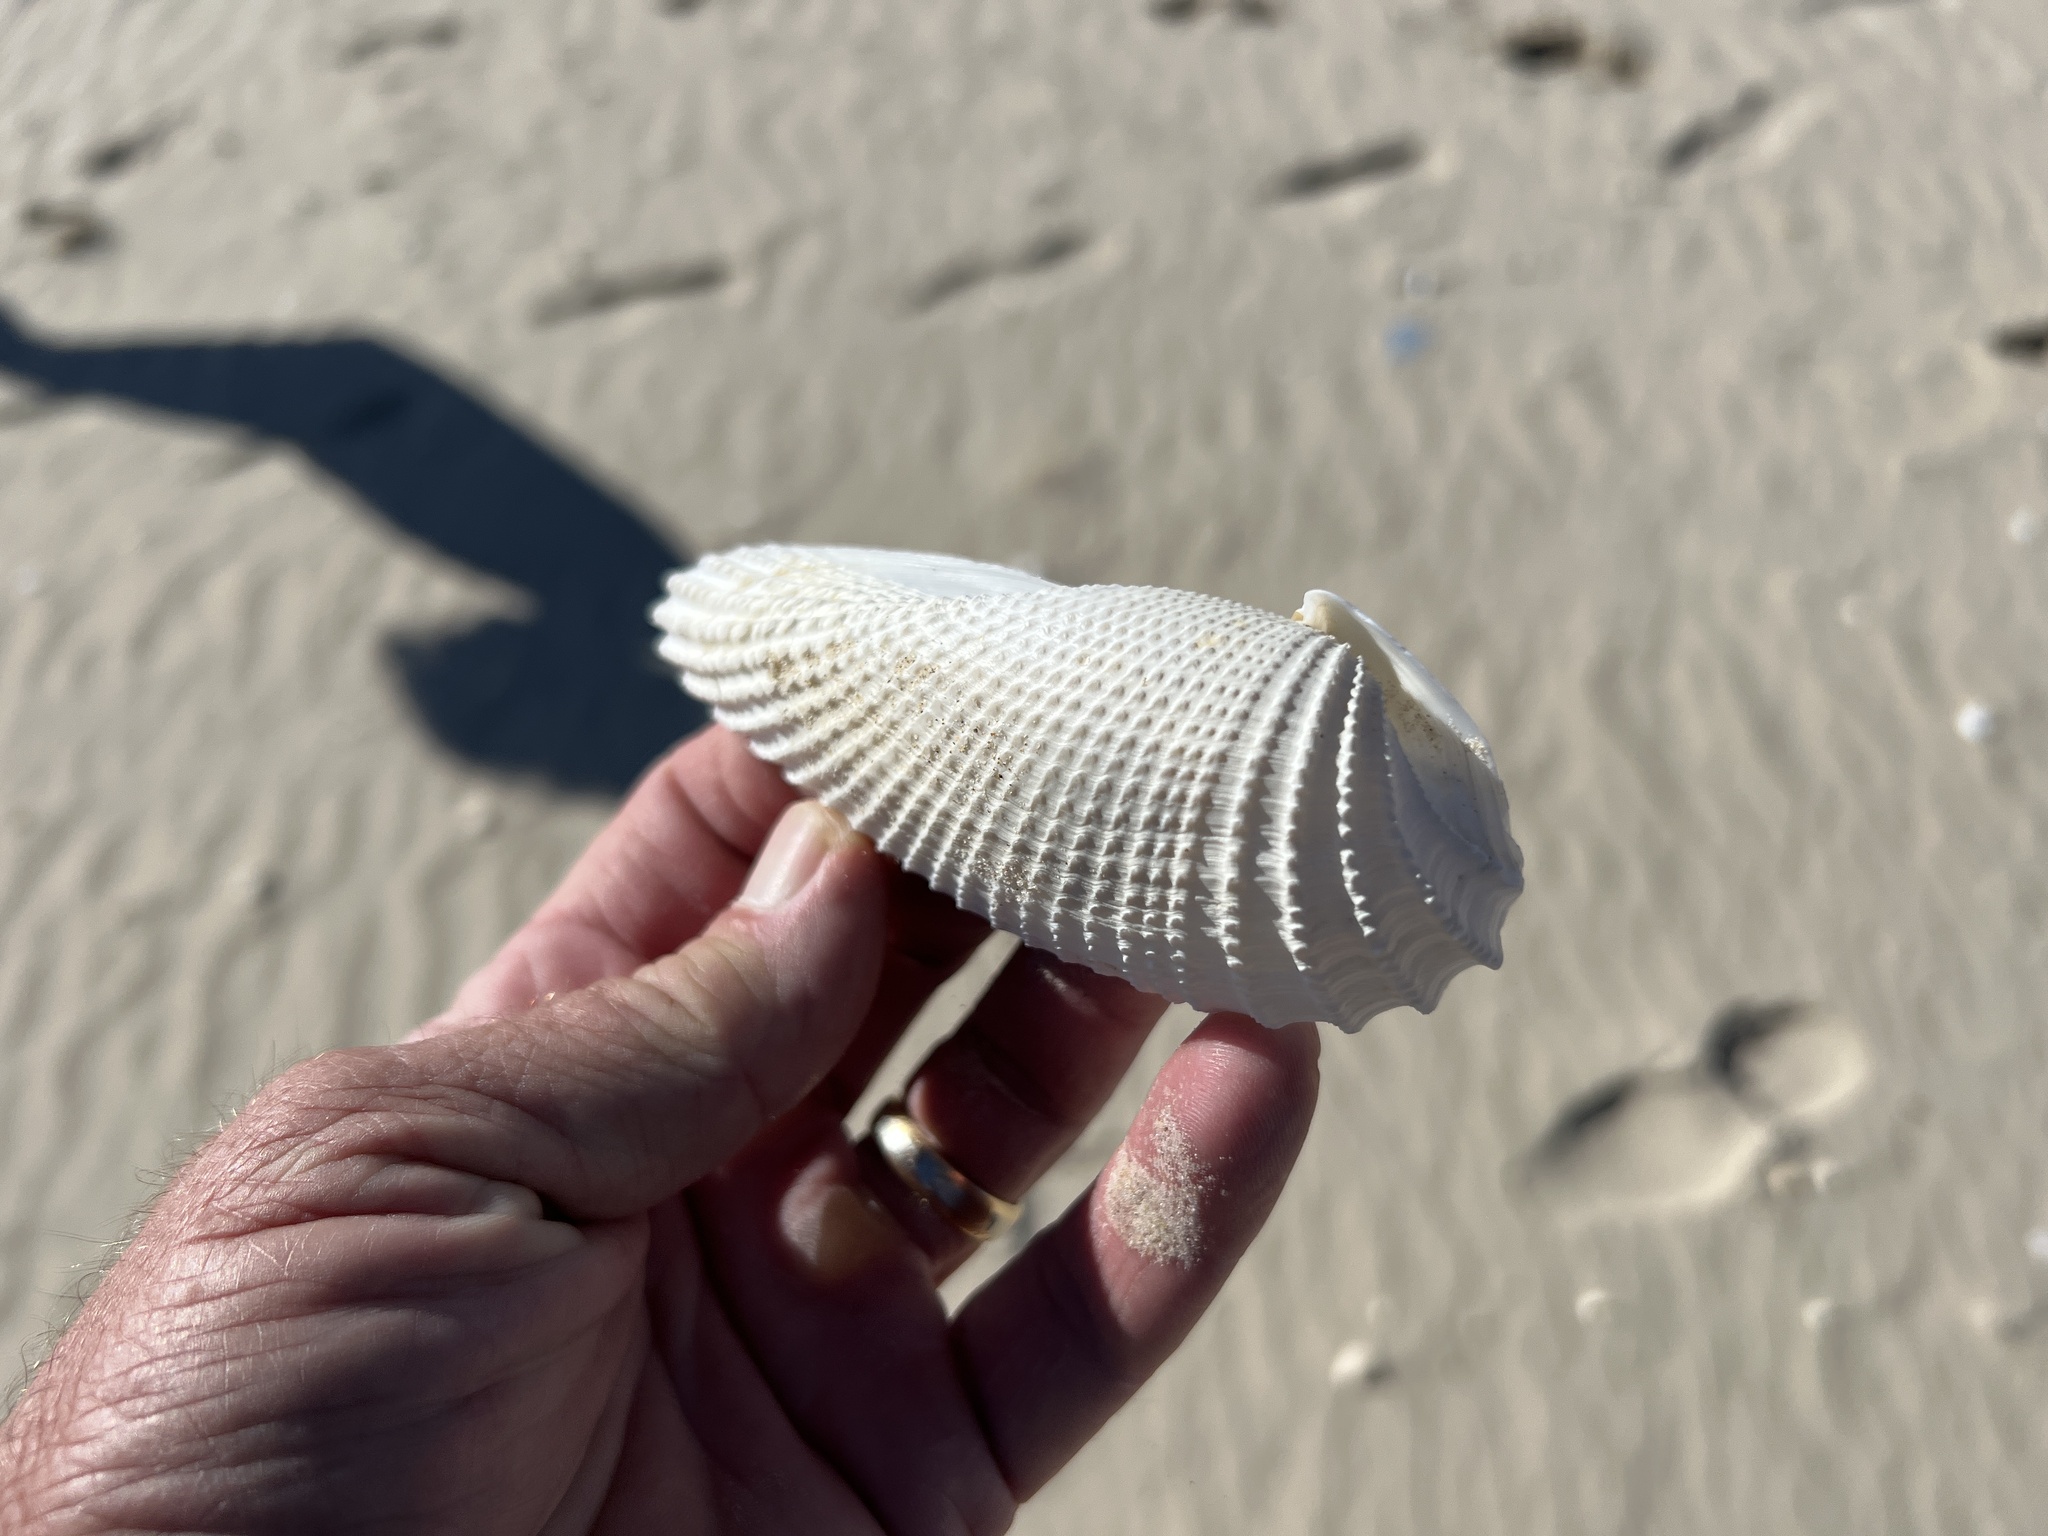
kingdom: Animalia
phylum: Mollusca
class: Bivalvia
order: Myida
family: Pholadidae
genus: Cyrtopleura
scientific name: Cyrtopleura costata
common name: Angel wing
